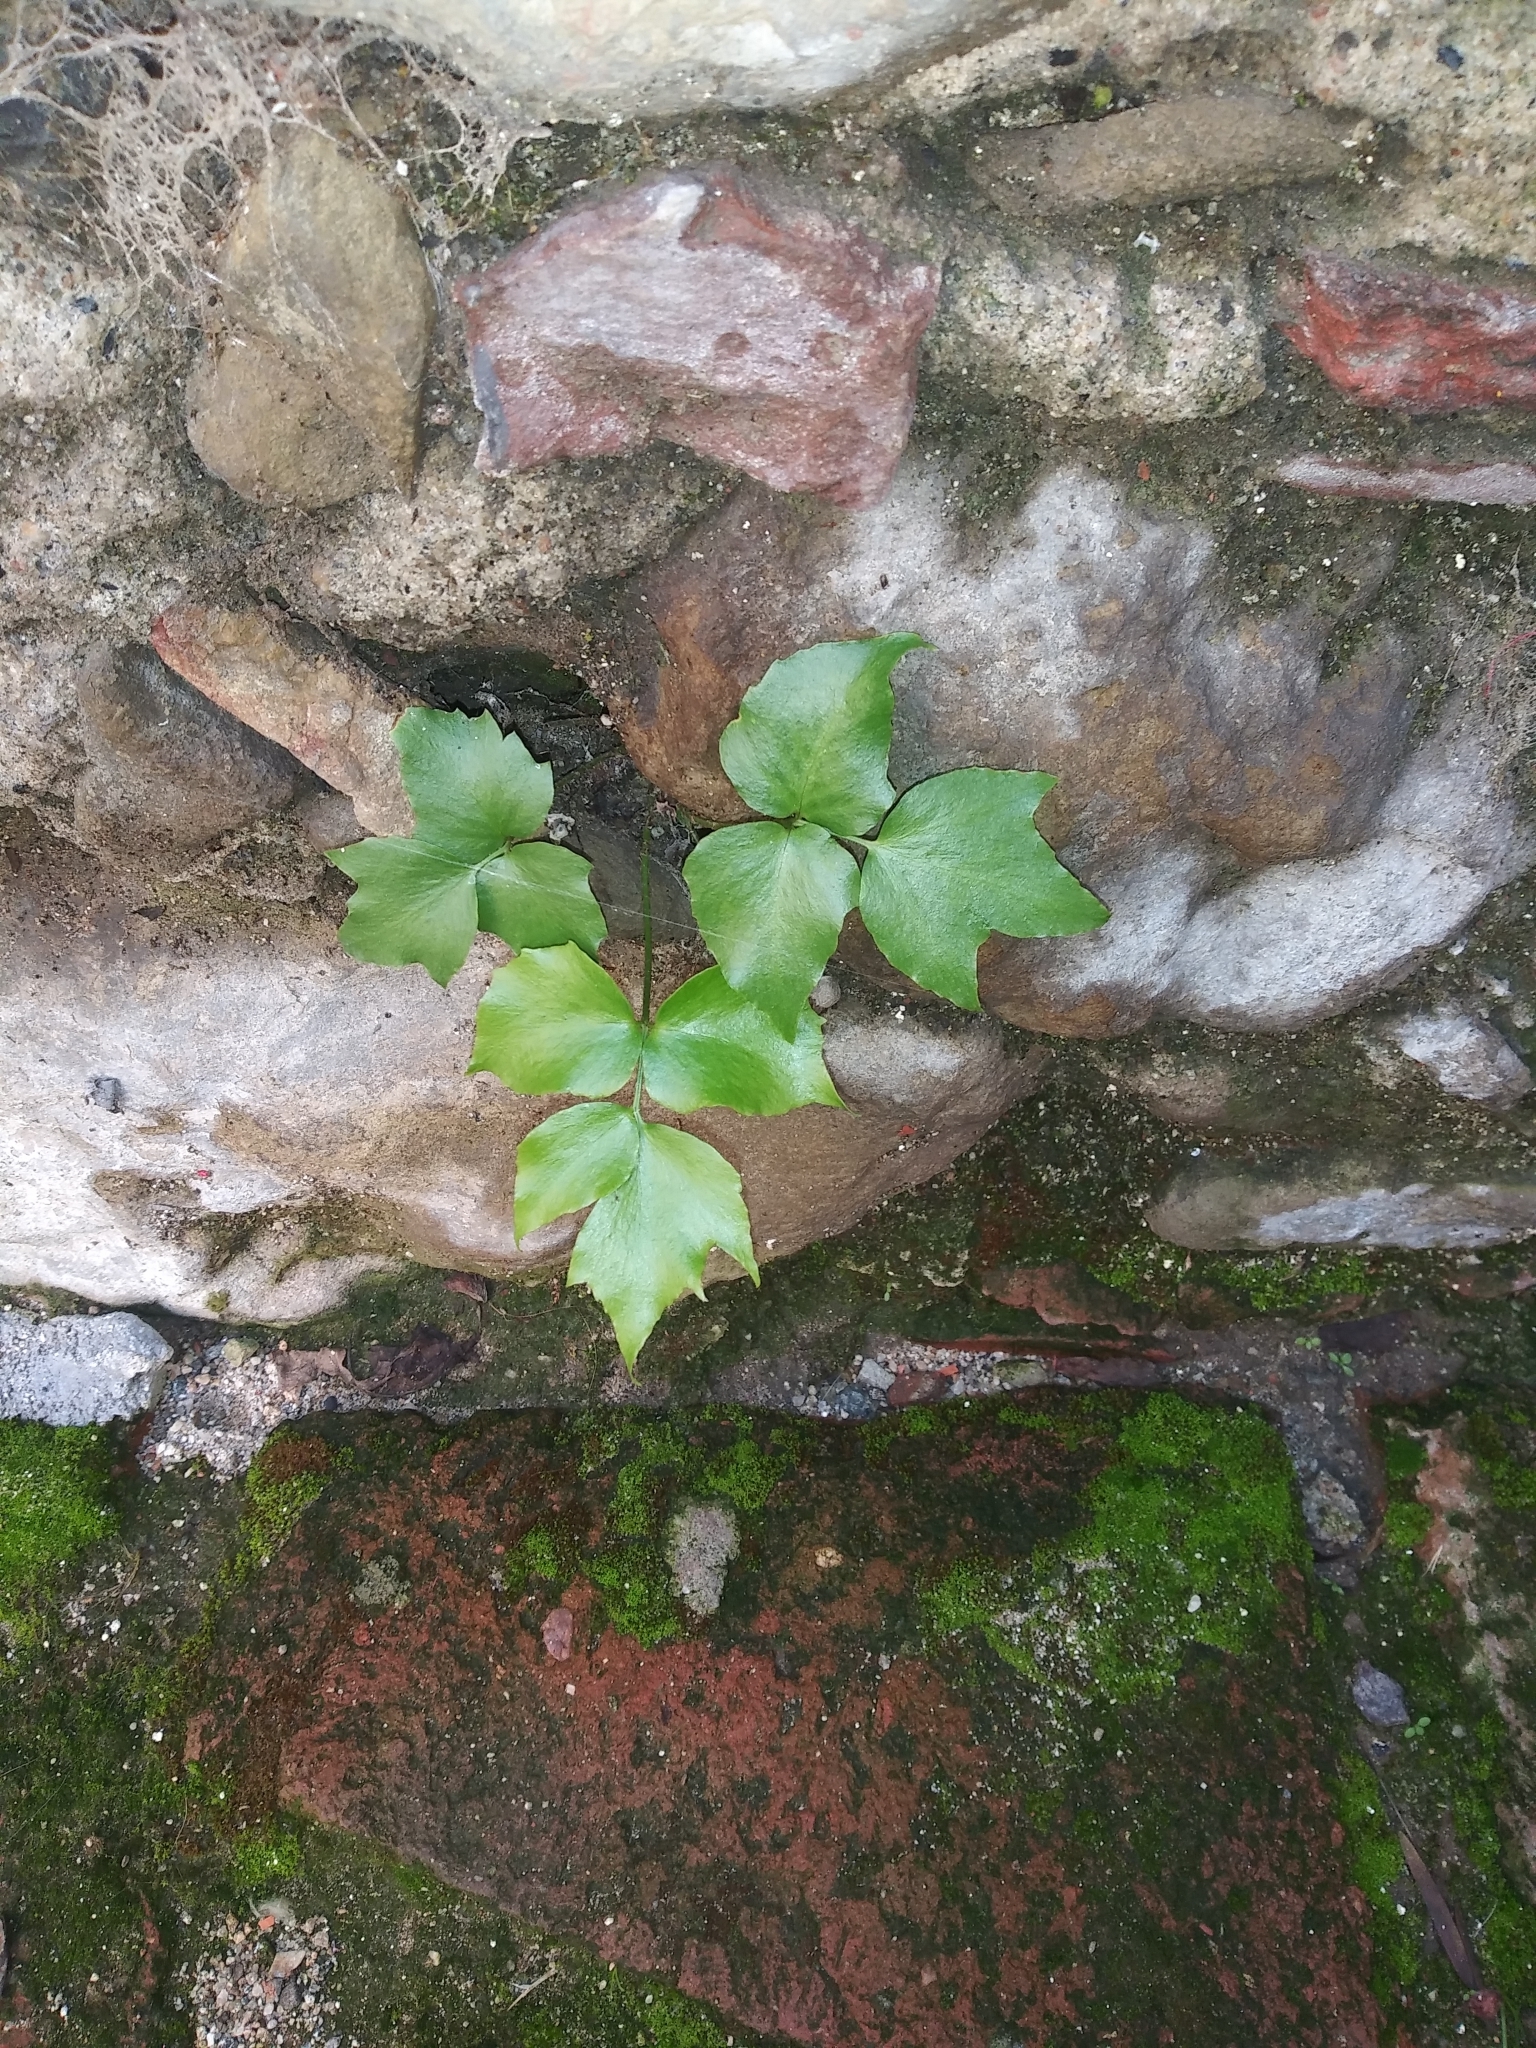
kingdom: Plantae
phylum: Tracheophyta
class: Polypodiopsida
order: Polypodiales
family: Dryopteridaceae
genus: Cyrtomium
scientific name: Cyrtomium falcatum
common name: House holly-fern
